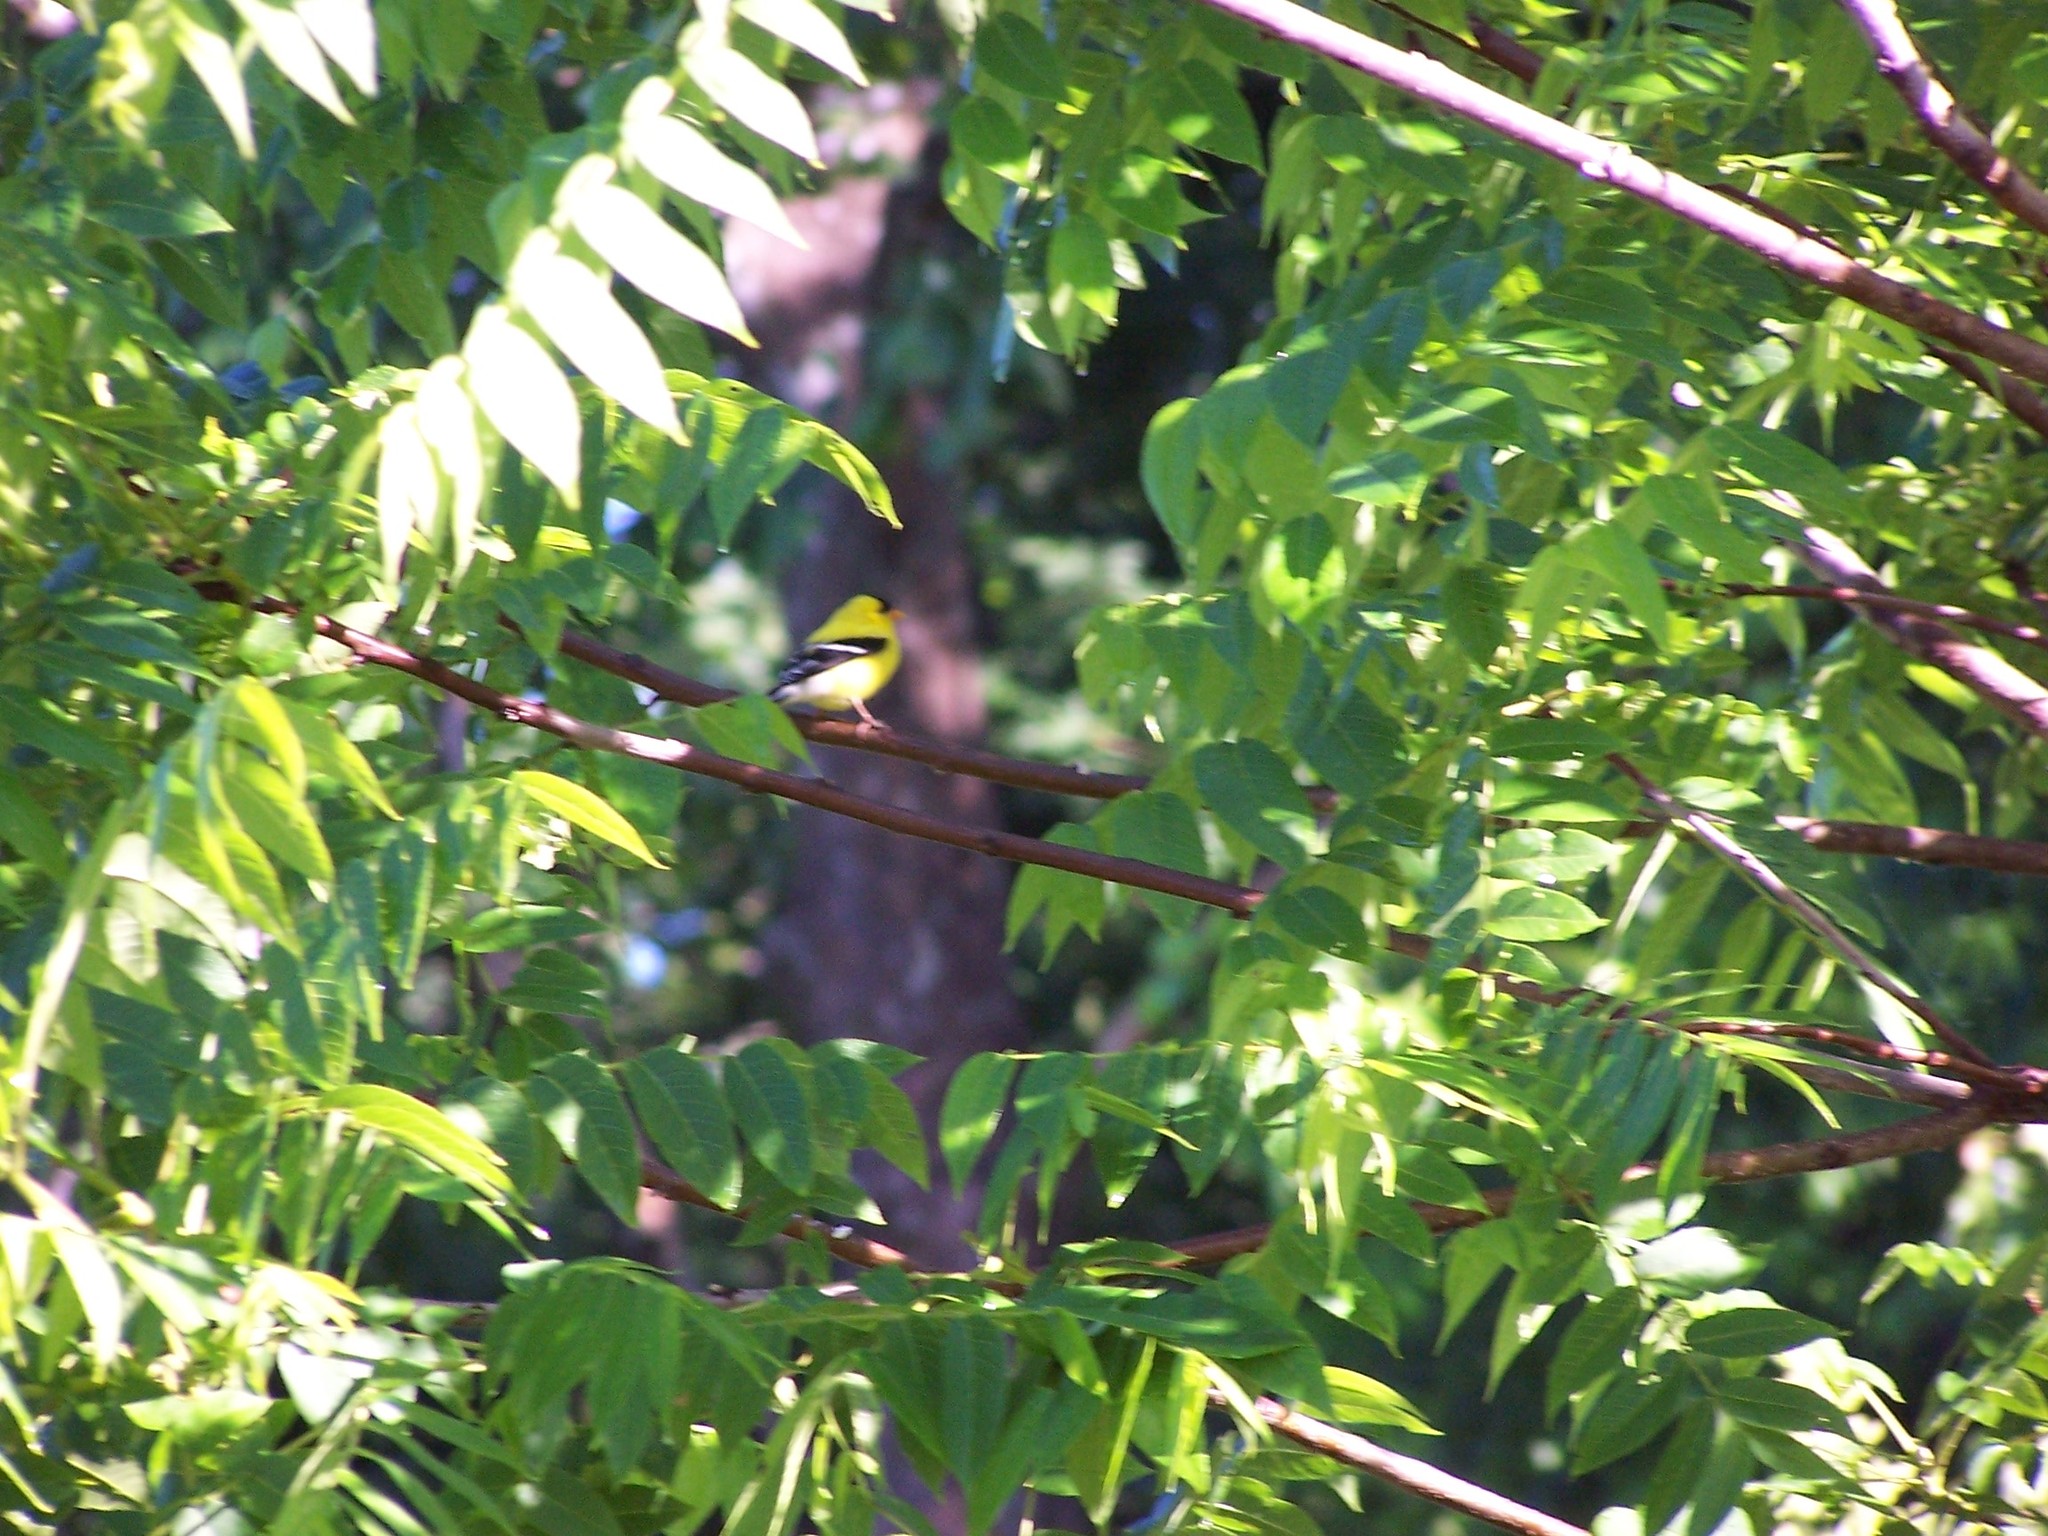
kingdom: Animalia
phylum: Chordata
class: Aves
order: Passeriformes
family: Fringillidae
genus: Spinus
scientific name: Spinus tristis
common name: American goldfinch
